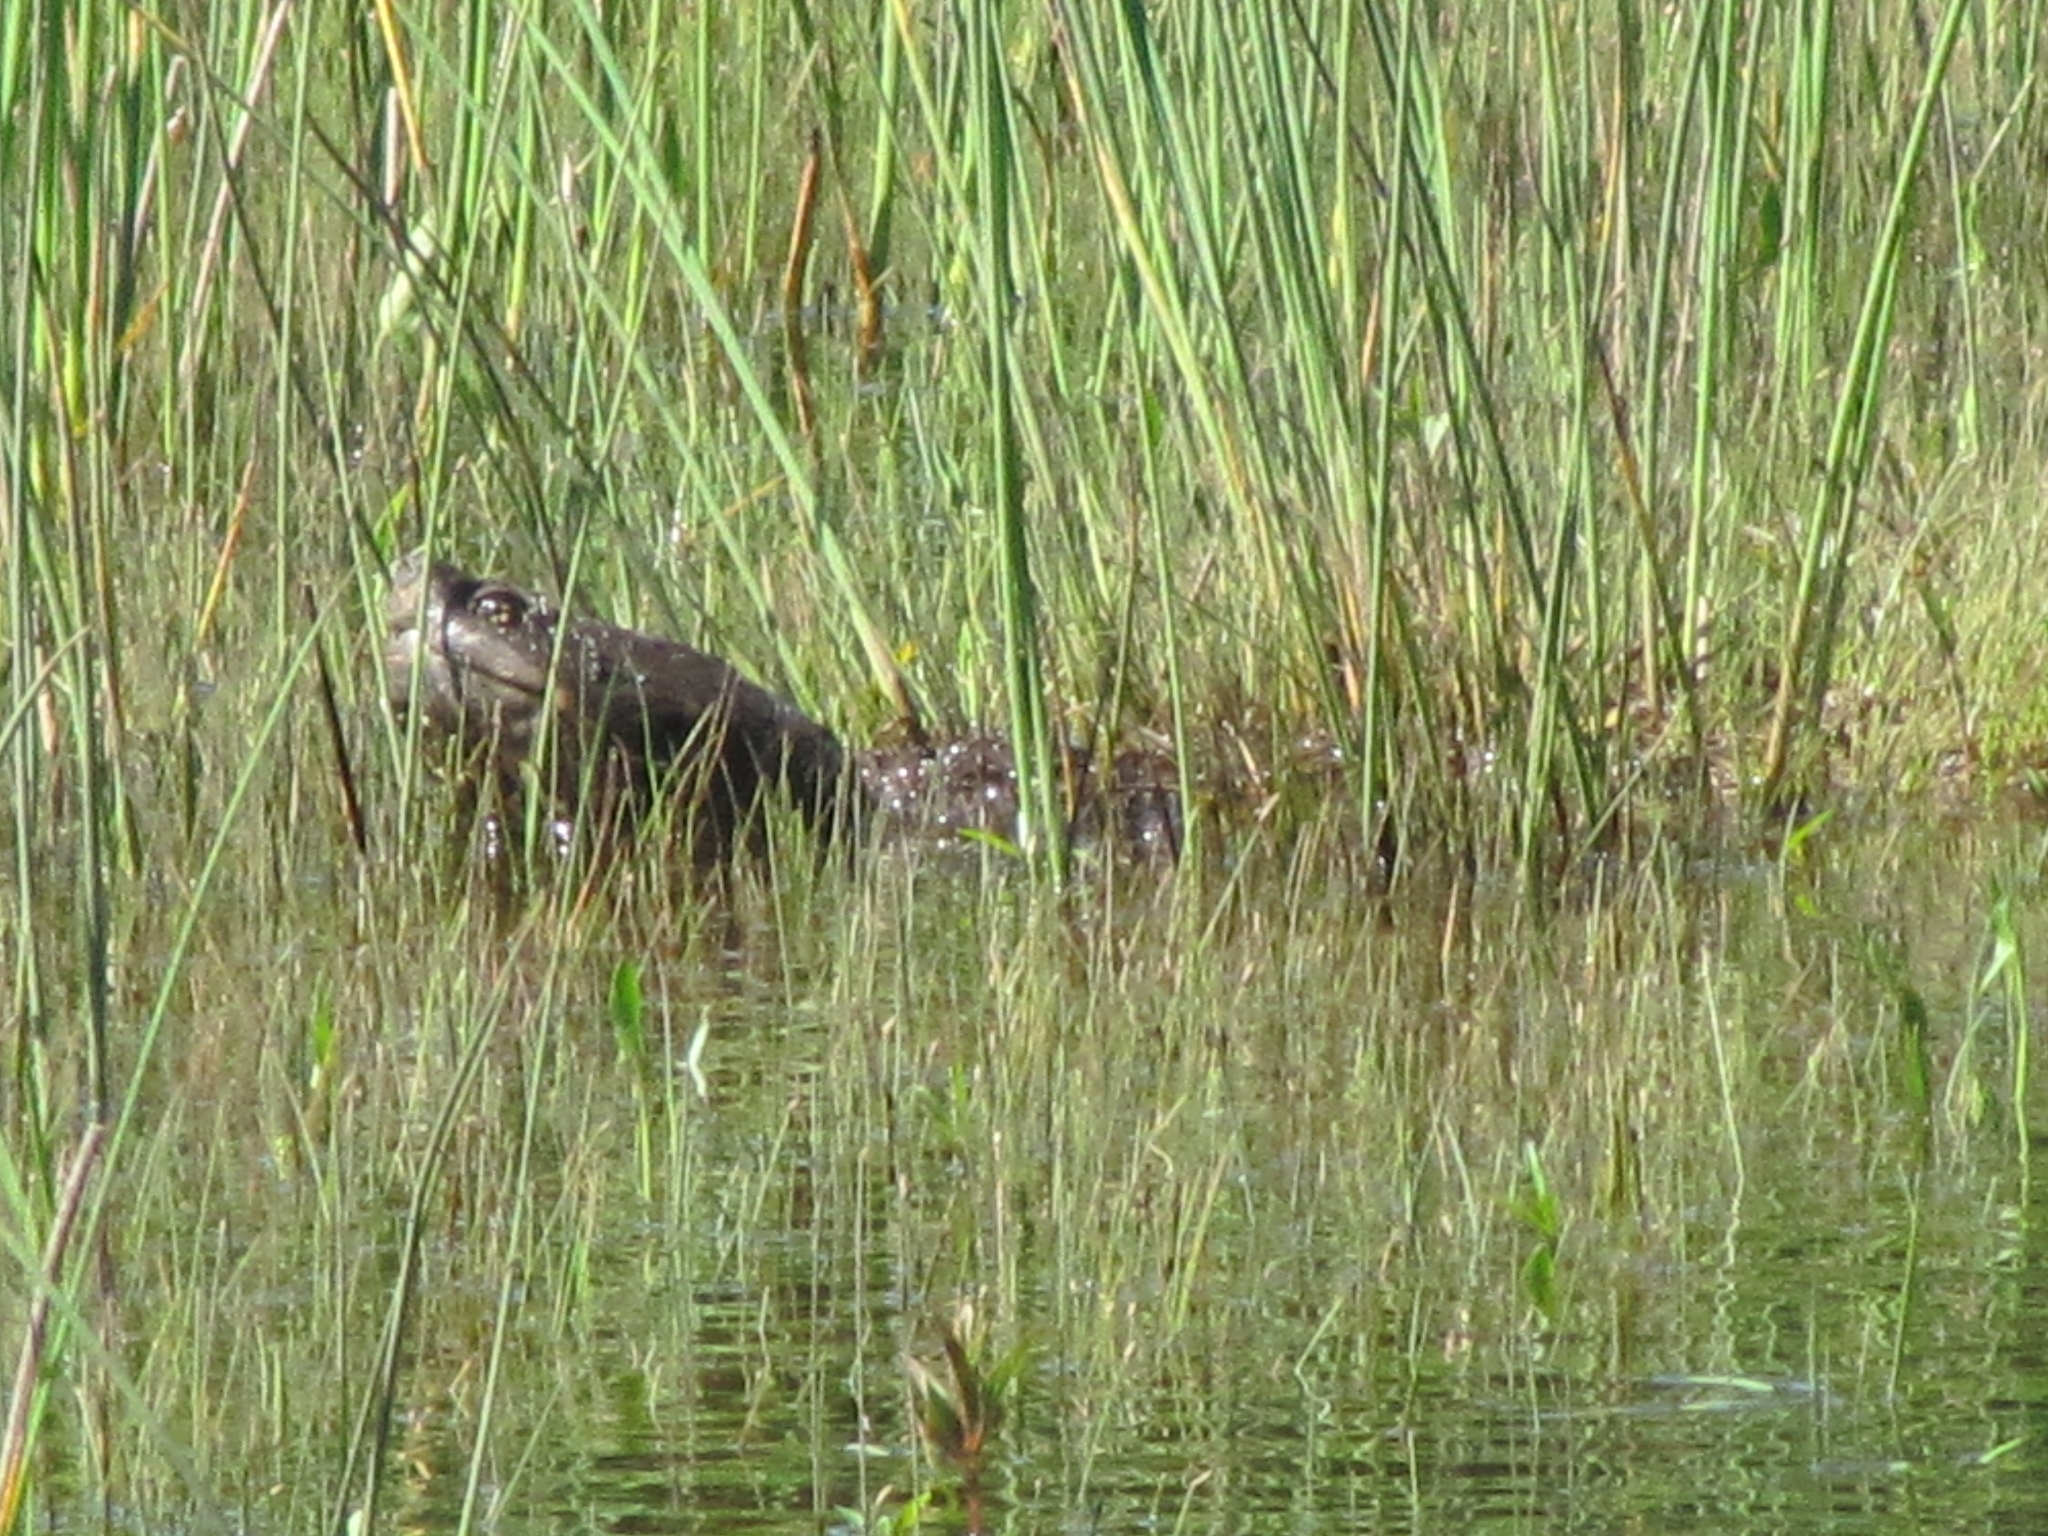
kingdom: Animalia
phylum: Chordata
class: Testudines
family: Chelydridae
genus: Chelydra
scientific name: Chelydra serpentina
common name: Common snapping turtle
